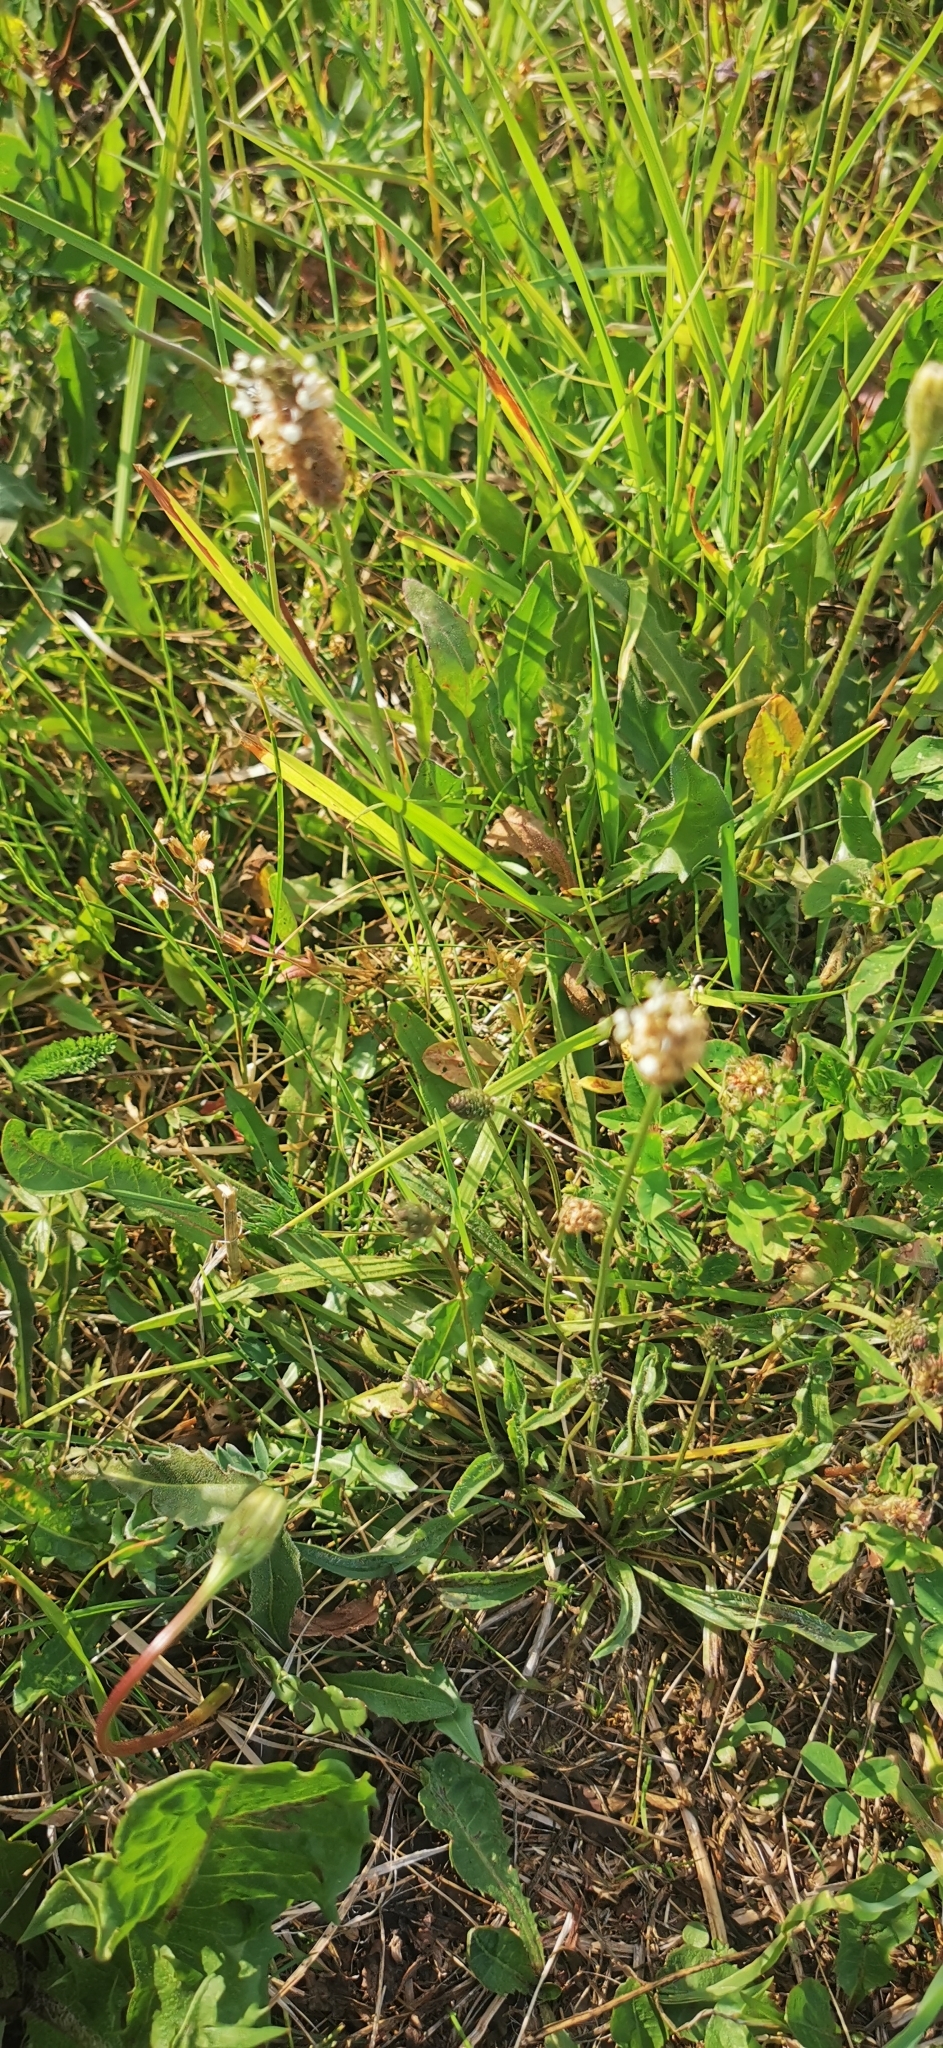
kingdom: Plantae
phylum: Tracheophyta
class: Magnoliopsida
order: Lamiales
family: Plantaginaceae
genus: Plantago
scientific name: Plantago lanceolata
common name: Ribwort plantain
